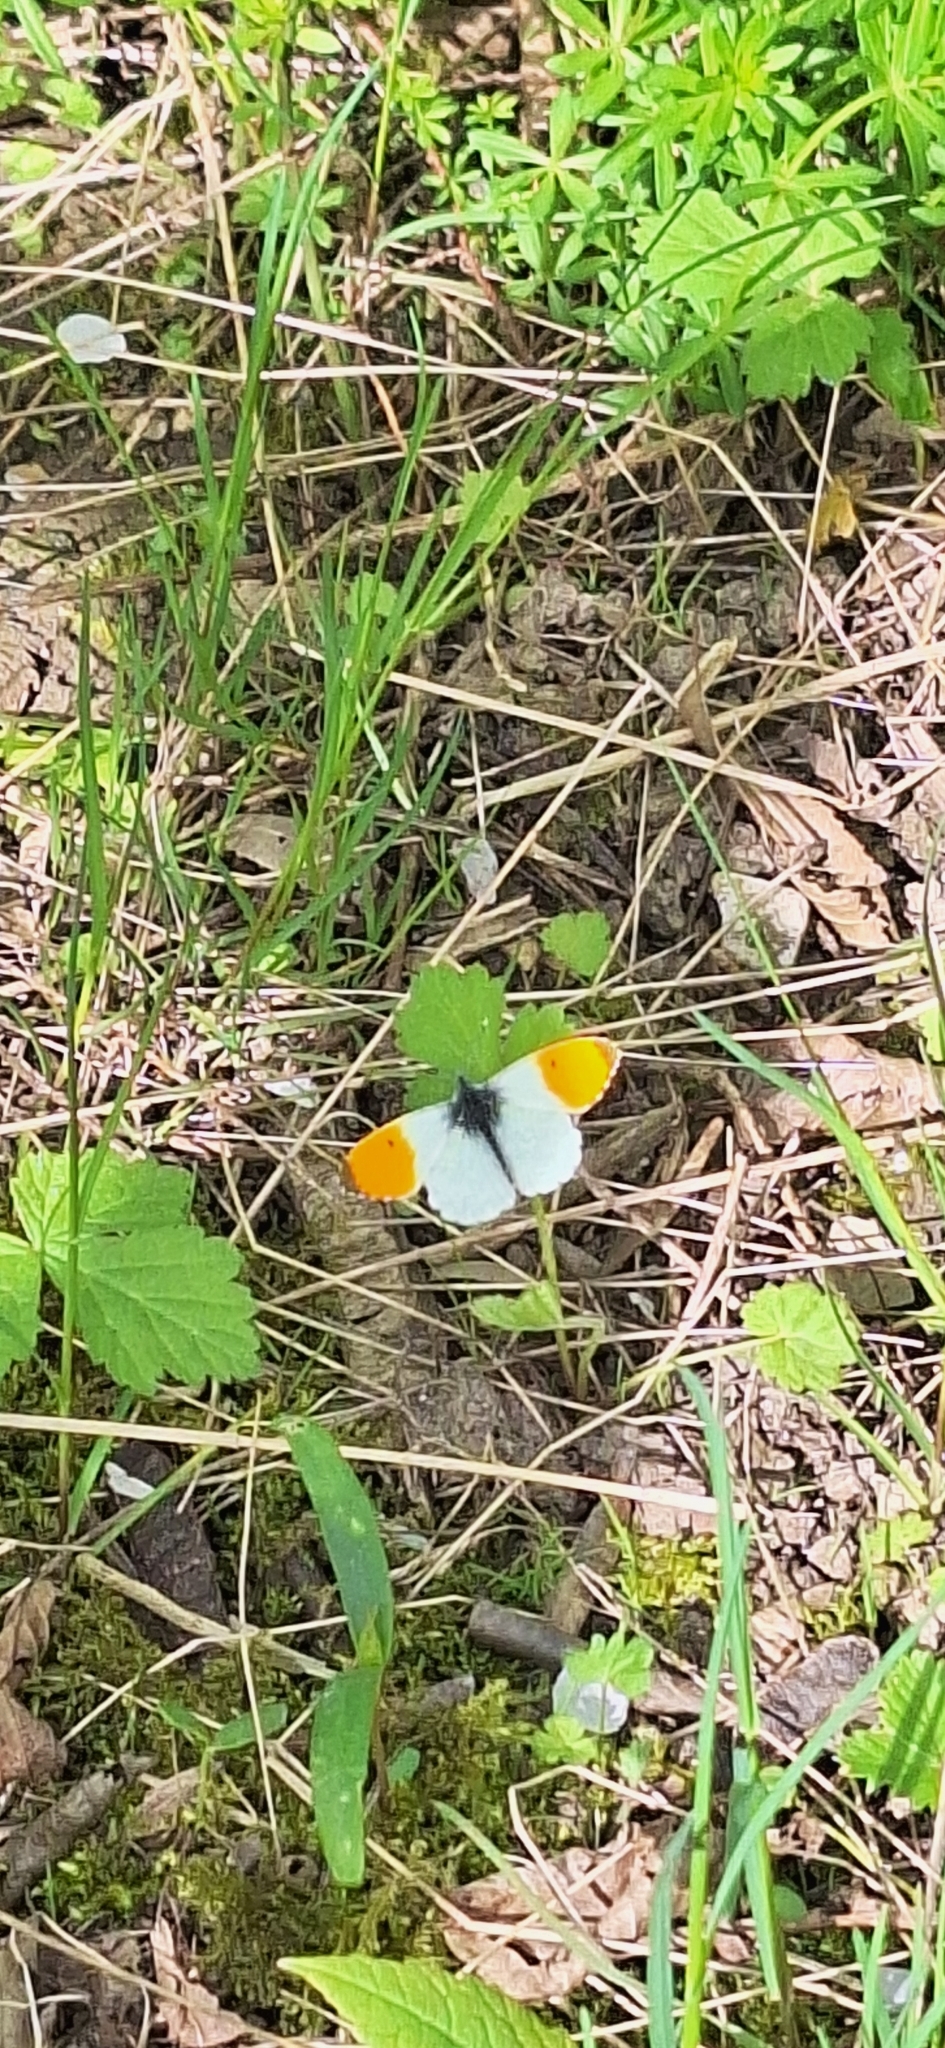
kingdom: Animalia
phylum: Arthropoda
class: Insecta
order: Lepidoptera
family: Pieridae
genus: Anthocharis
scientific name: Anthocharis cardamines
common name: Orange-tip
